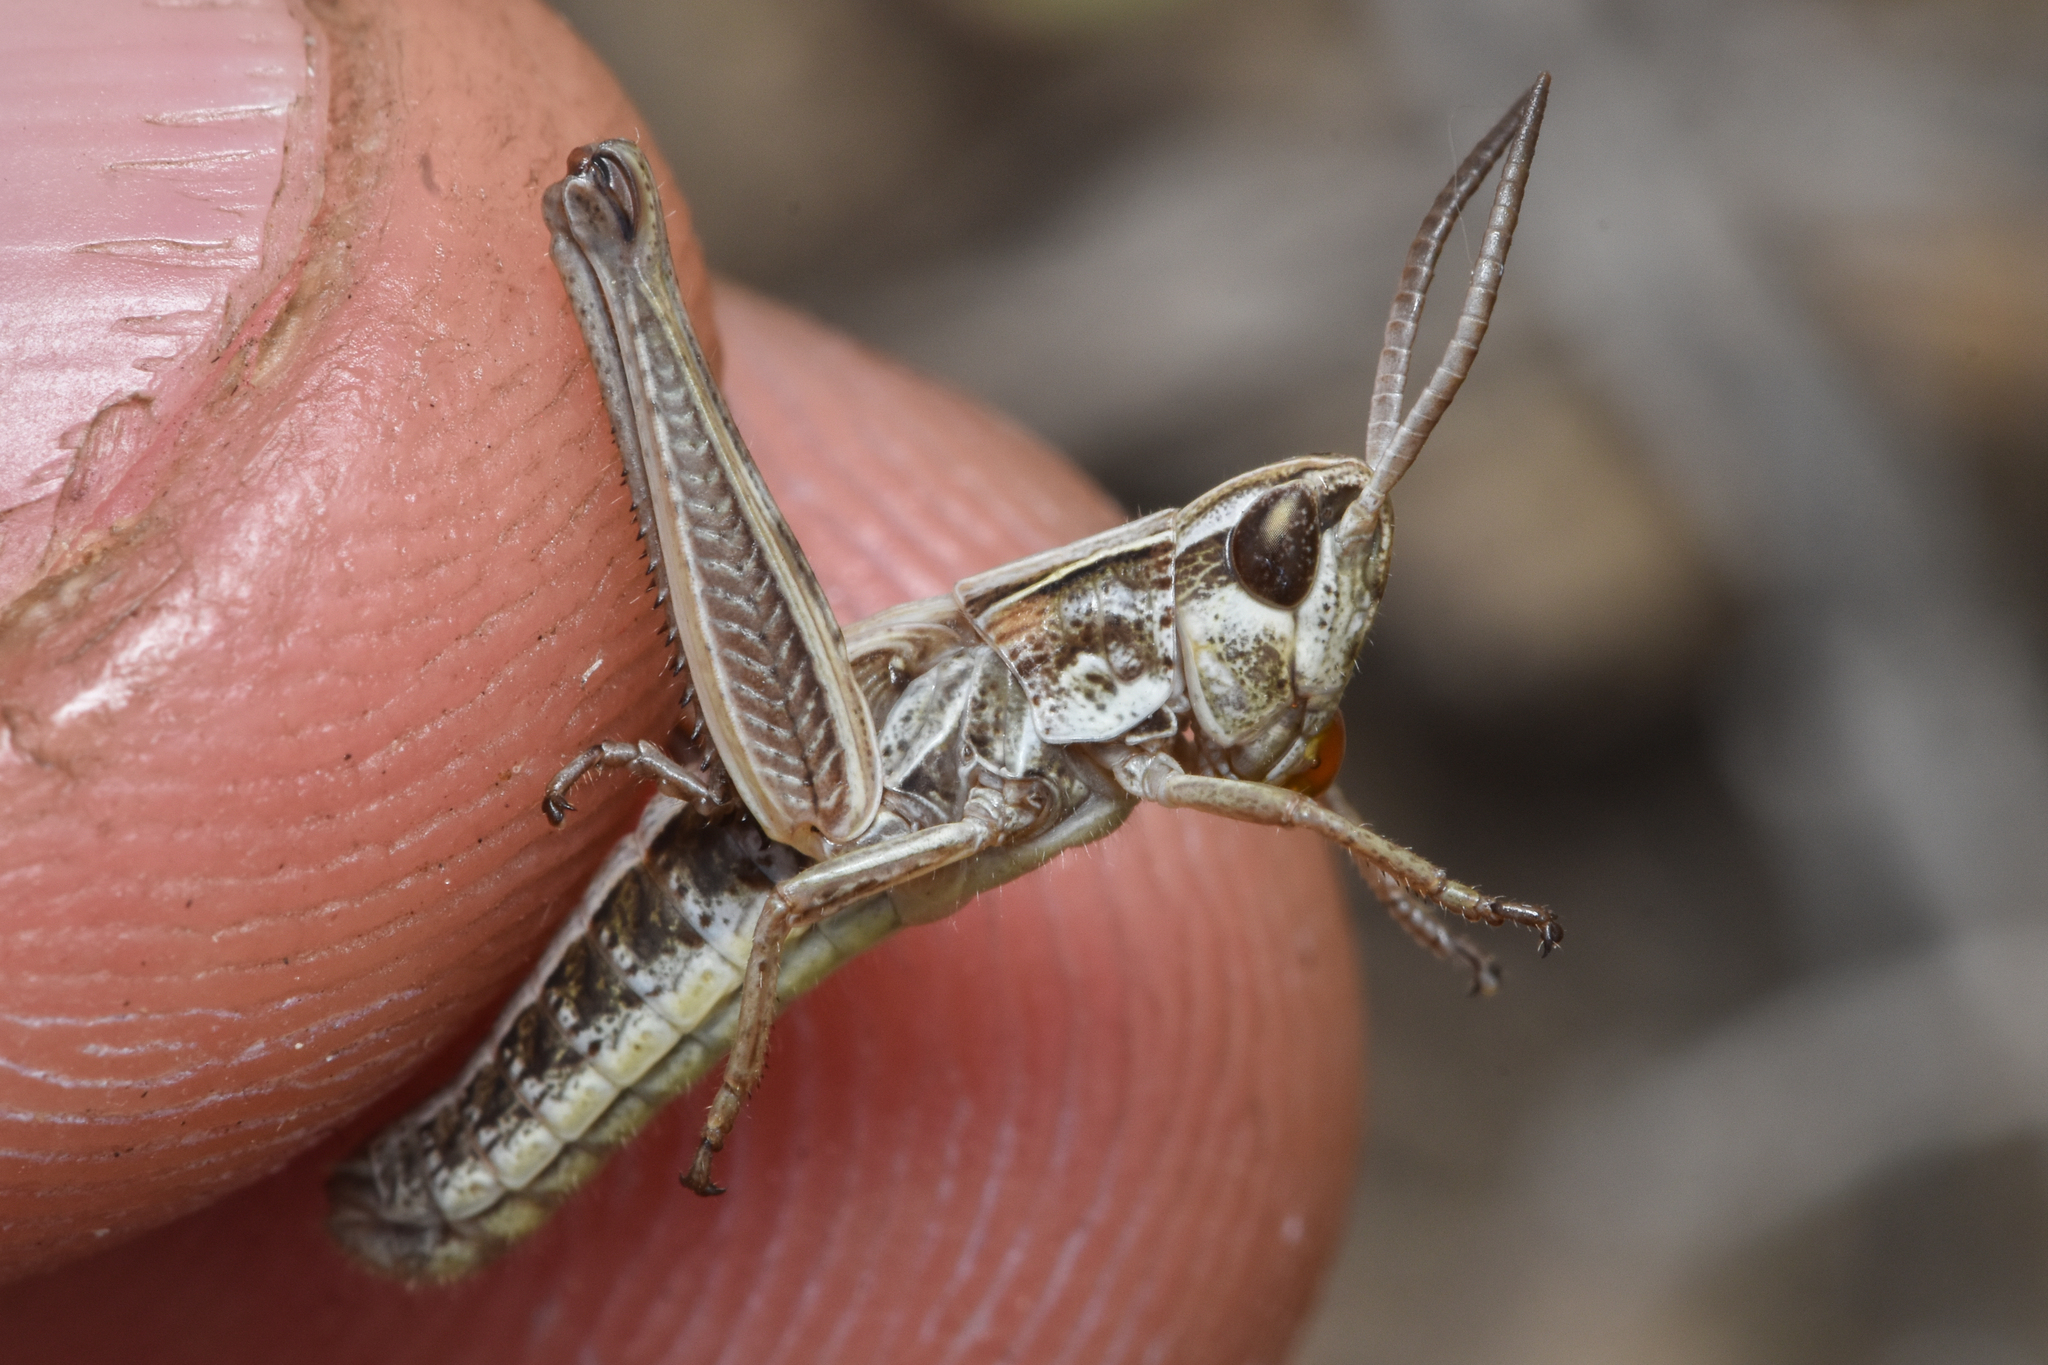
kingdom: Animalia
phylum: Arthropoda
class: Insecta
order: Orthoptera
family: Acrididae
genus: Pseudochorthippus
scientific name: Pseudochorthippus curtipennis
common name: Marsh meadow grasshopper
